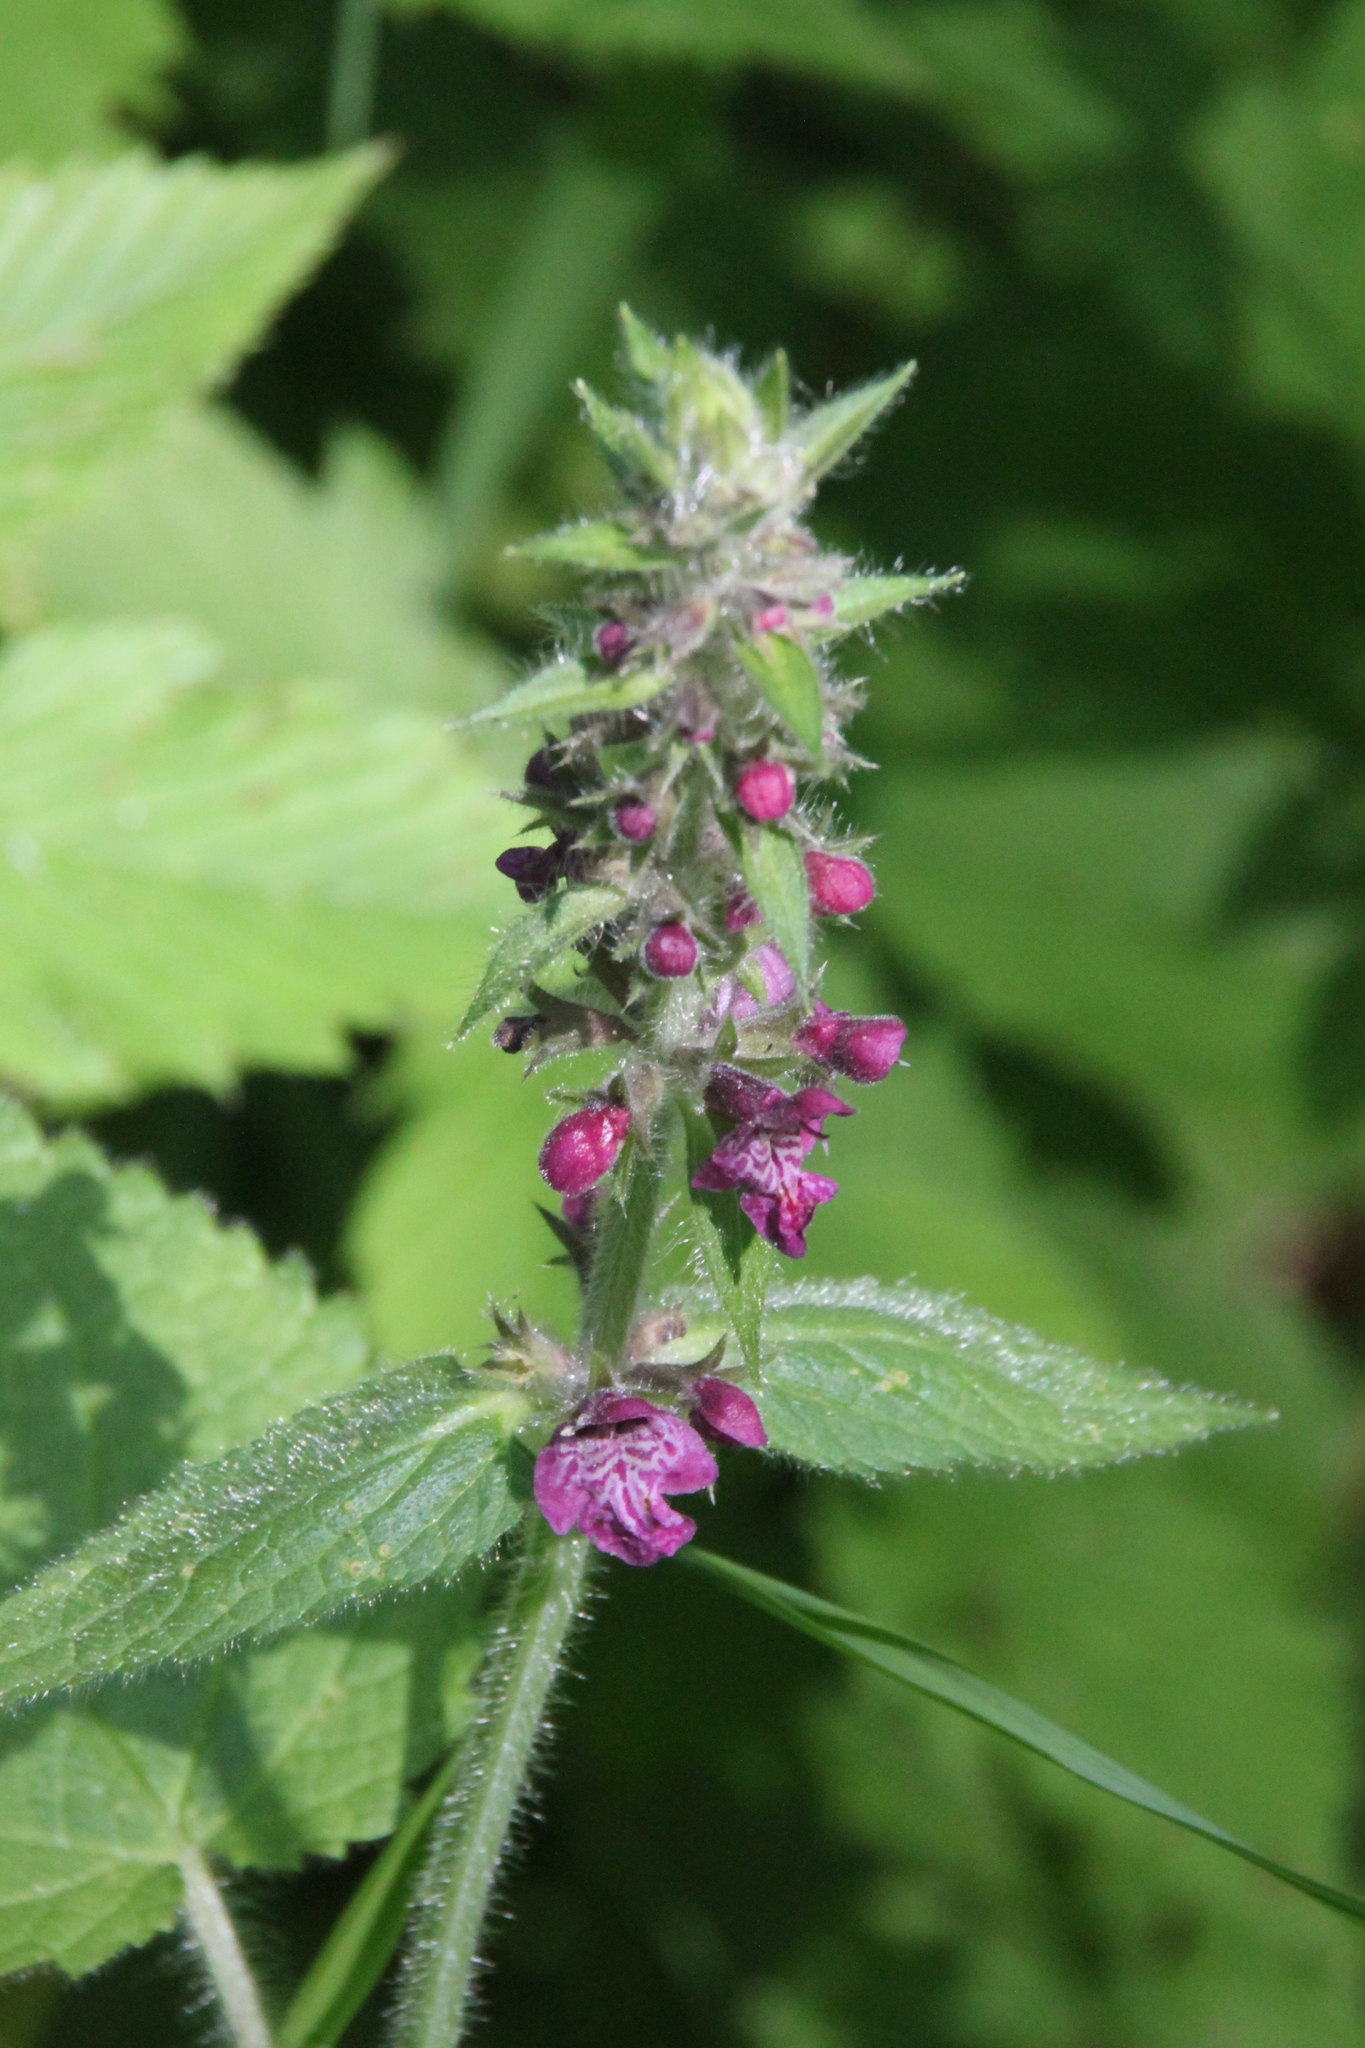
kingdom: Plantae
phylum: Tracheophyta
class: Magnoliopsida
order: Lamiales
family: Lamiaceae
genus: Stachys
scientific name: Stachys sylvatica
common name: Hedge woundwort
